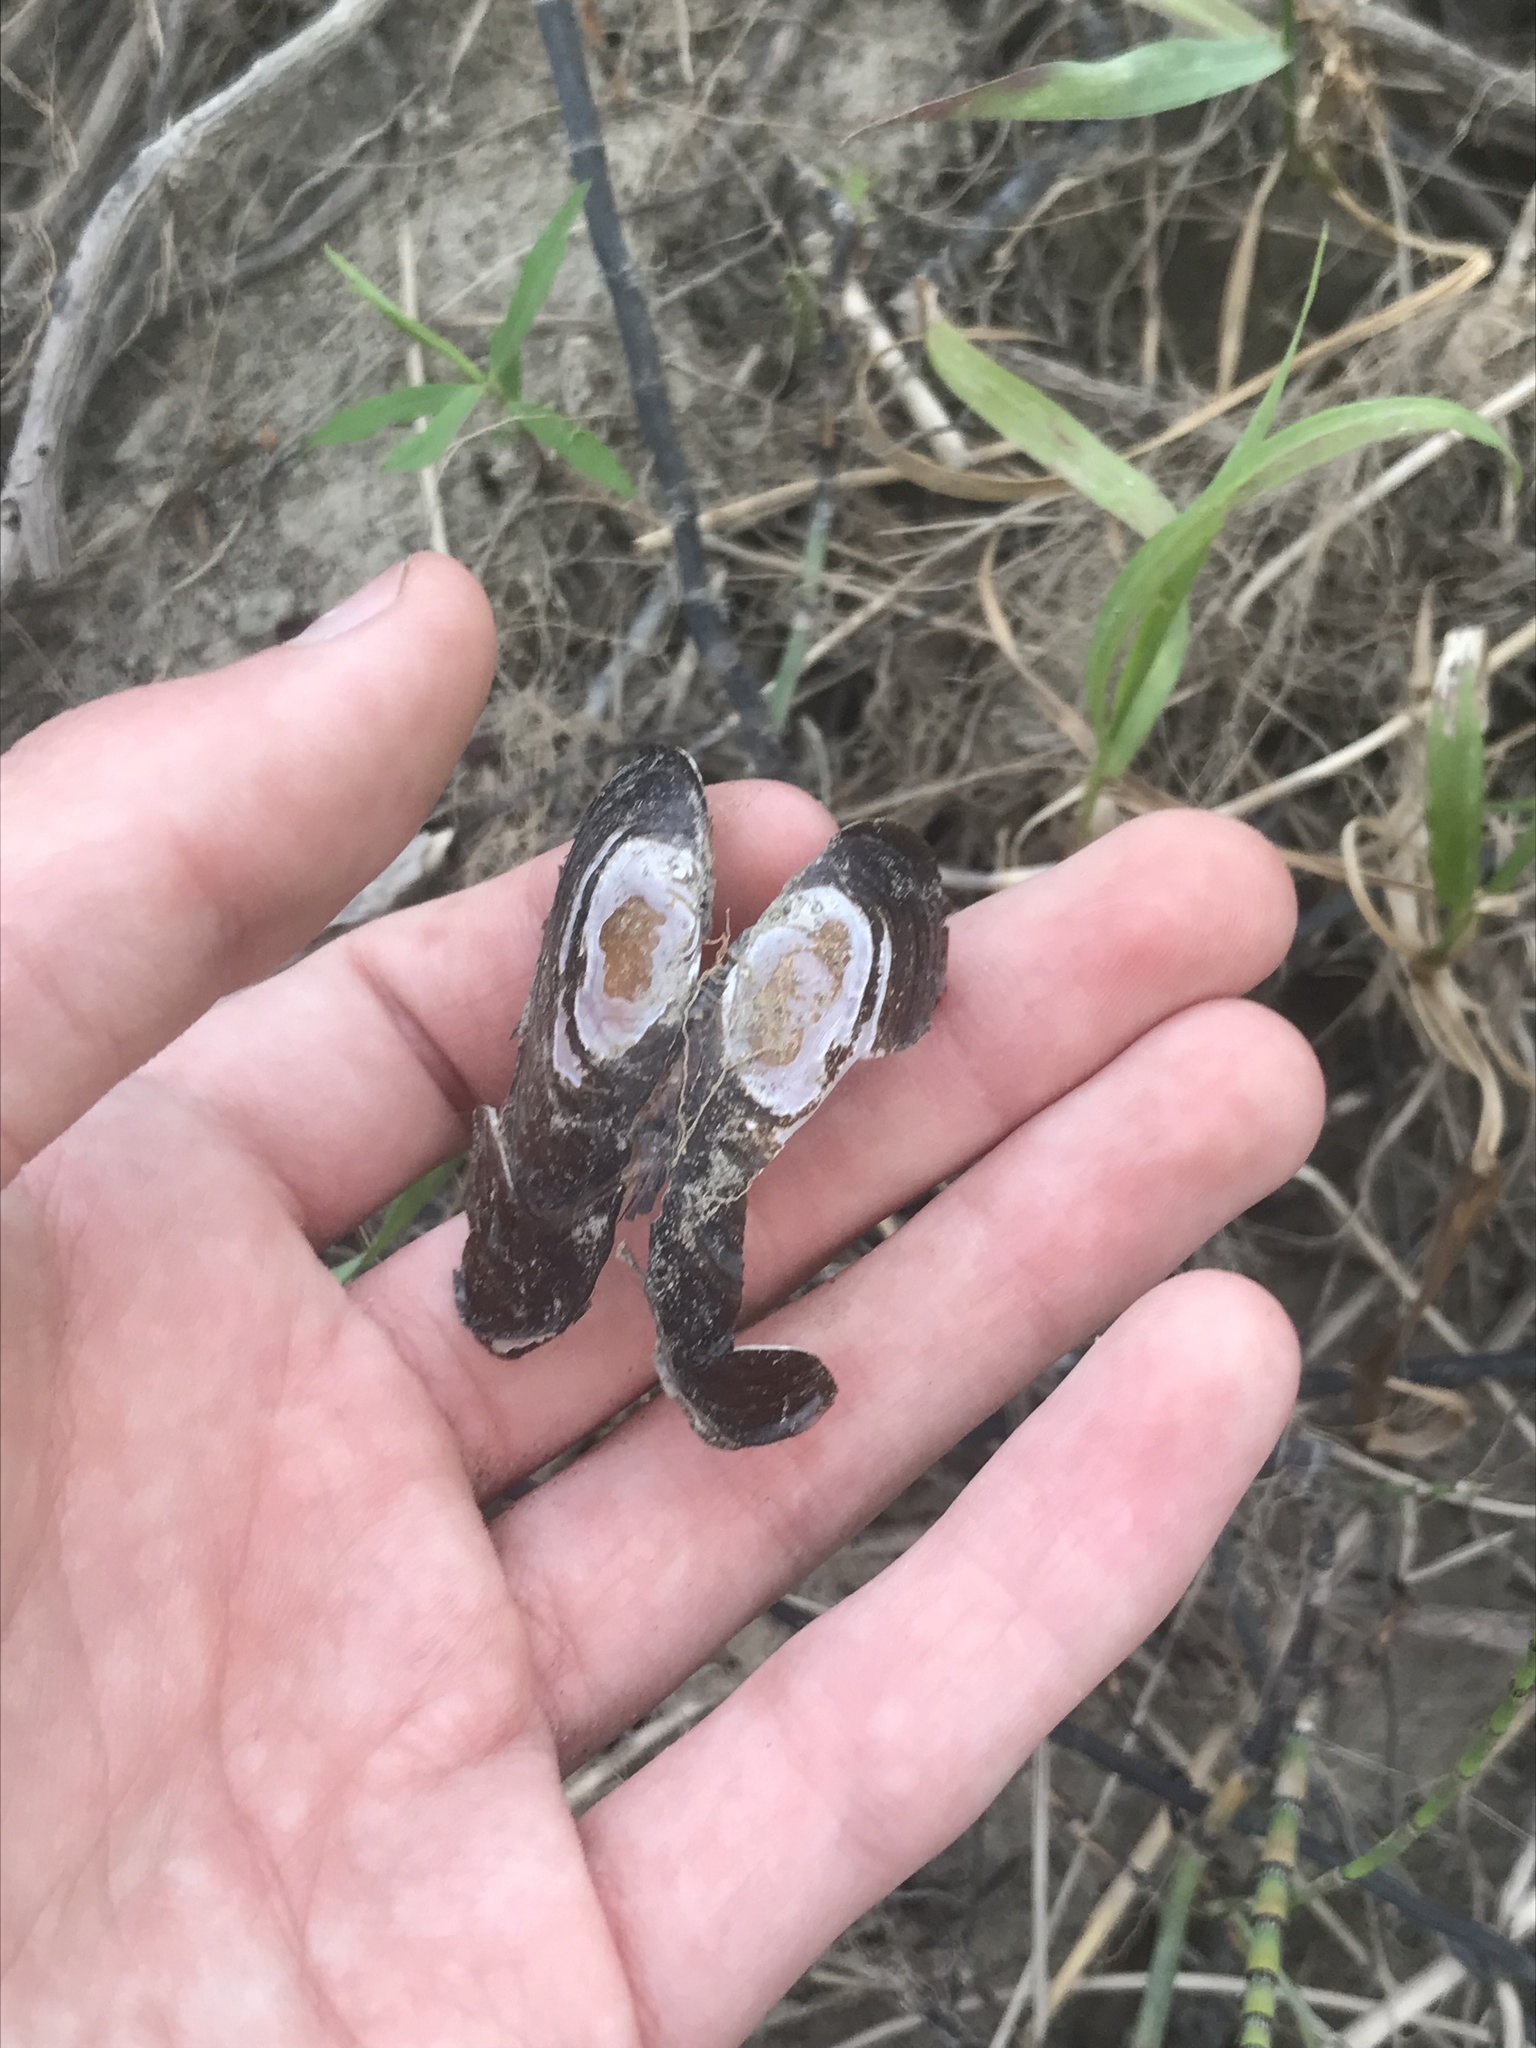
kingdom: Animalia
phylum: Mollusca
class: Bivalvia
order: Unionida
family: Margaritiferidae
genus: Margaritifera
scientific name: Margaritifera falcata
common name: Western pearlshell
